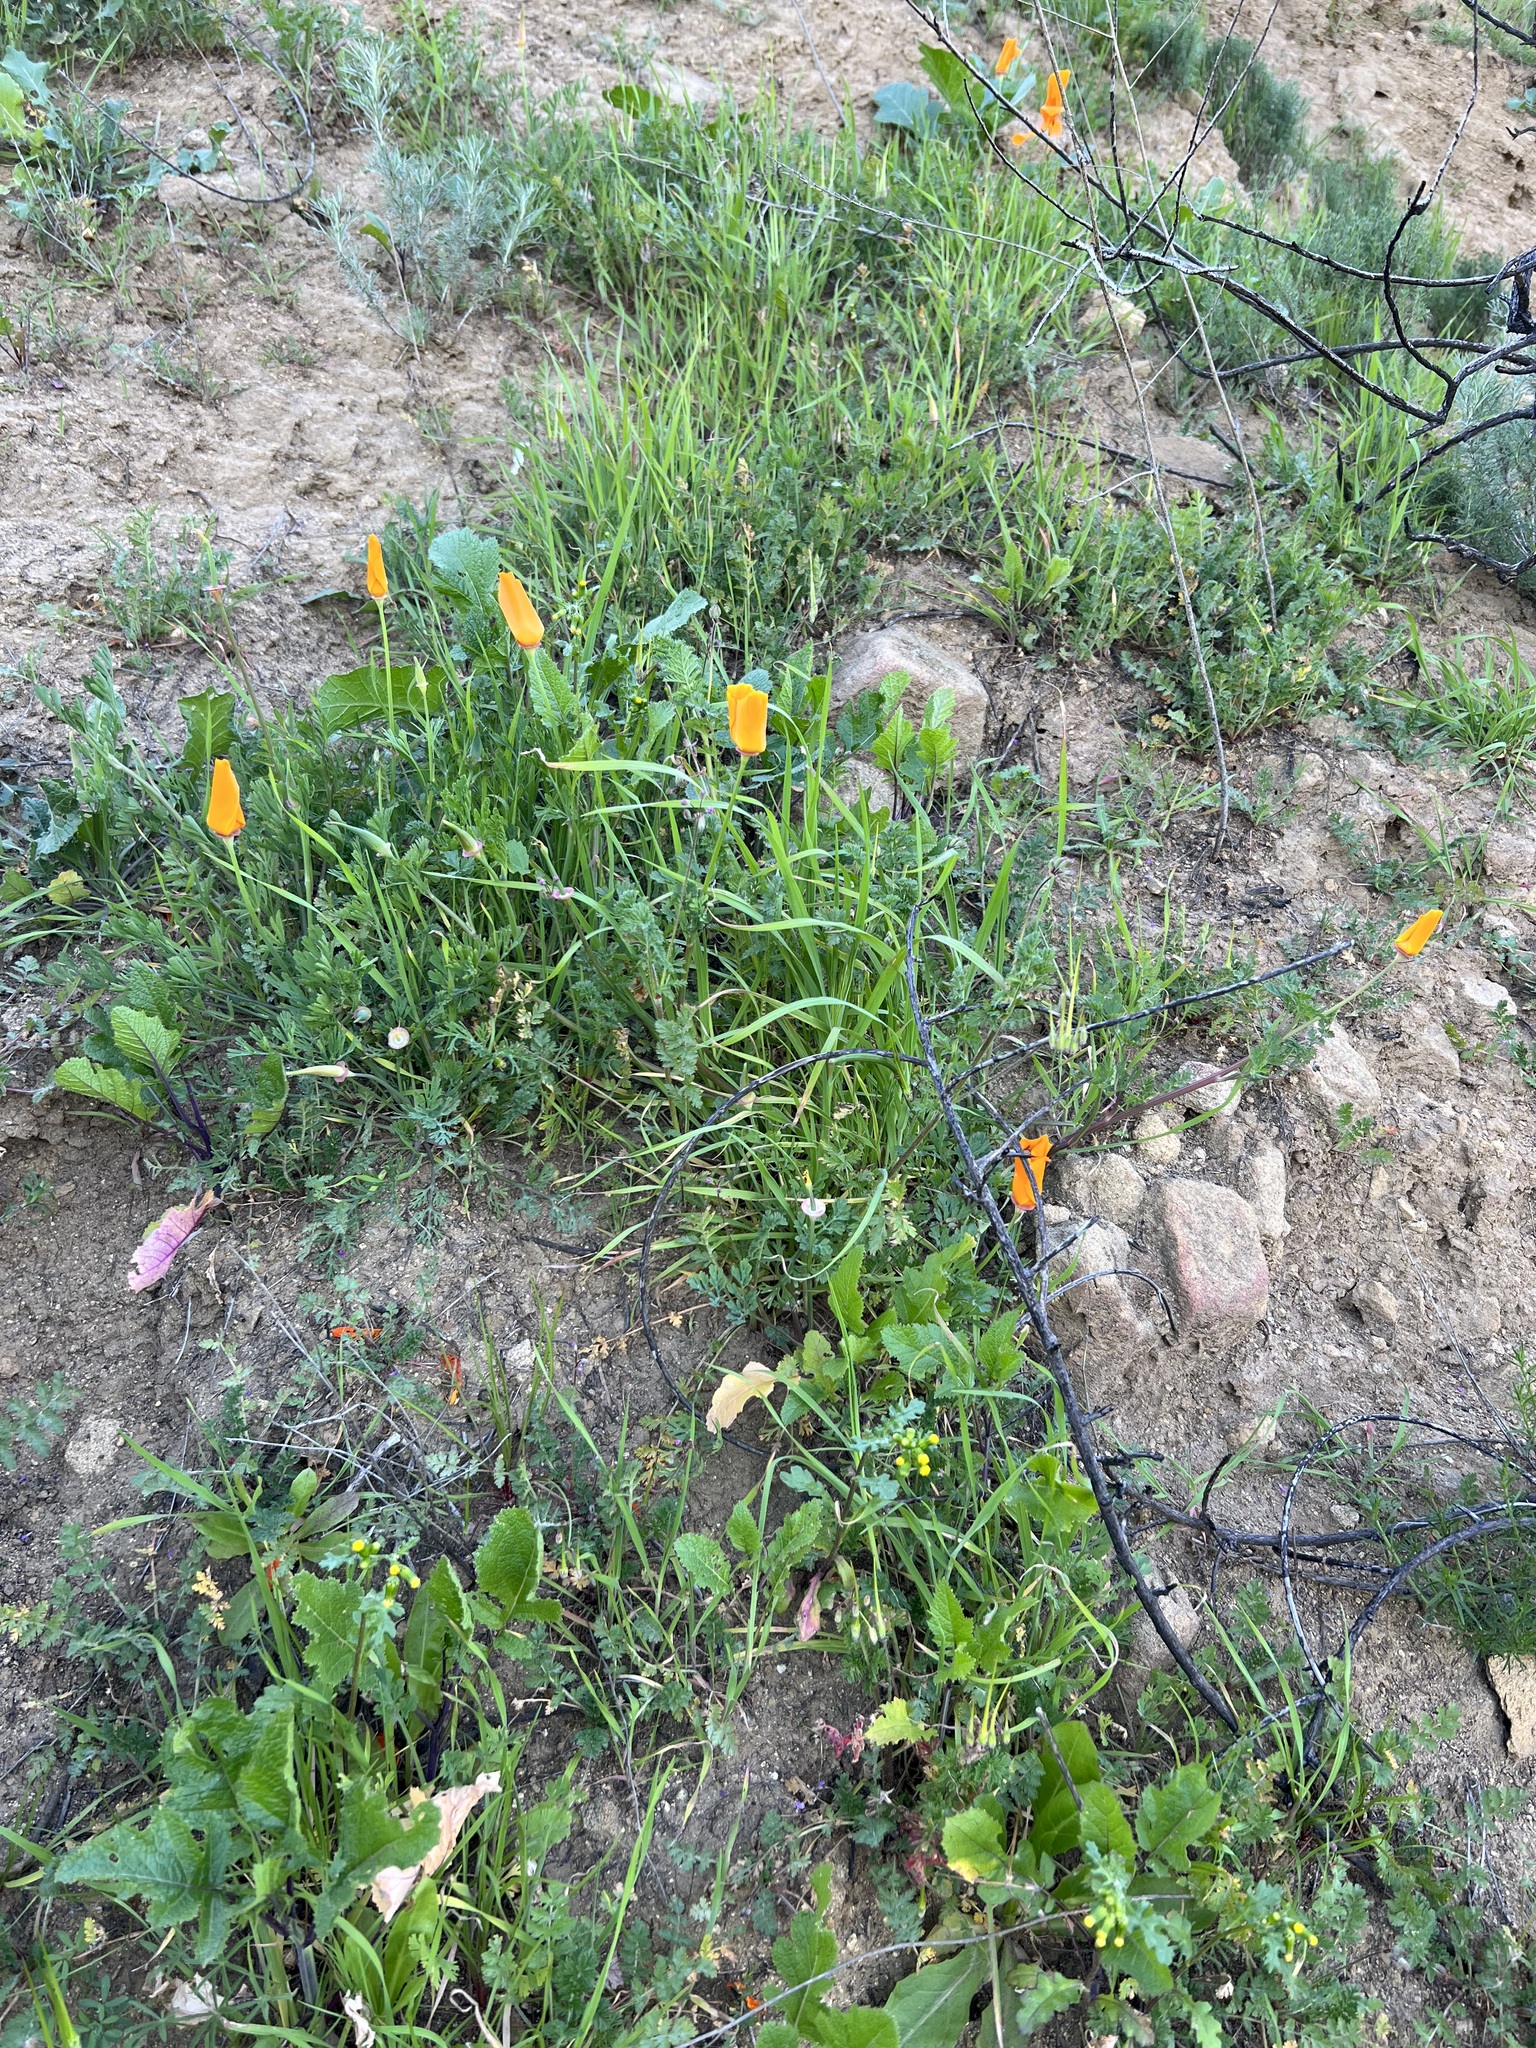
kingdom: Plantae
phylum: Tracheophyta
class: Magnoliopsida
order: Ranunculales
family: Papaveraceae
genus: Eschscholzia
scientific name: Eschscholzia californica
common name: California poppy
